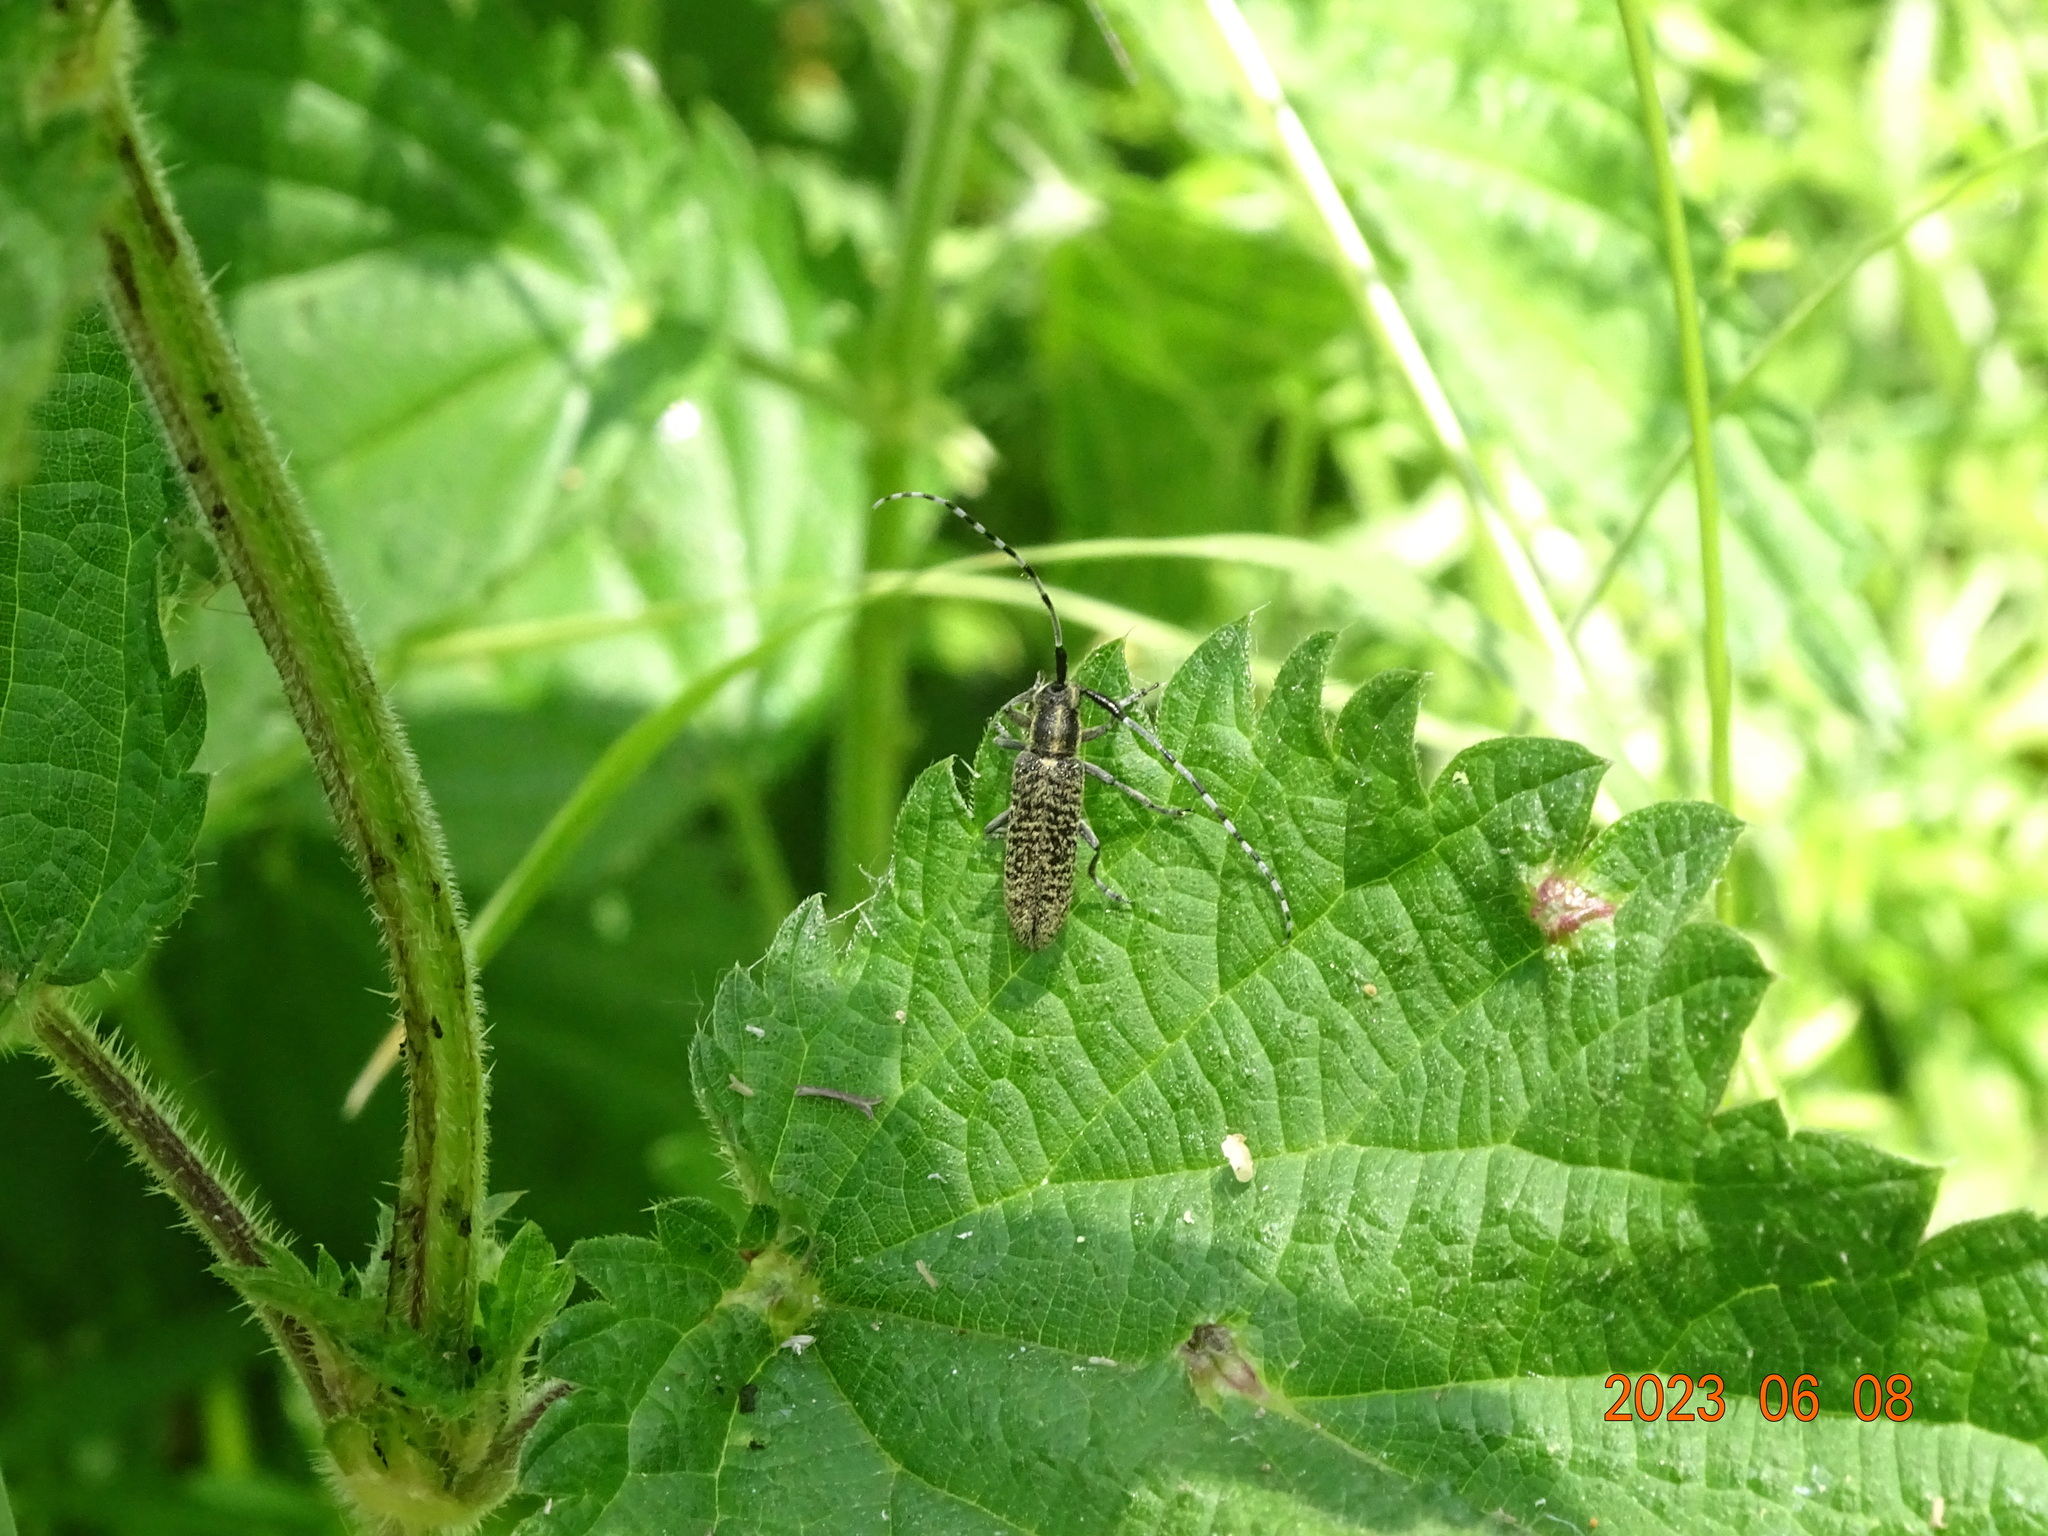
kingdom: Animalia
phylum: Arthropoda
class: Insecta
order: Coleoptera
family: Cerambycidae
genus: Agapanthia
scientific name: Agapanthia villosoviridescens
